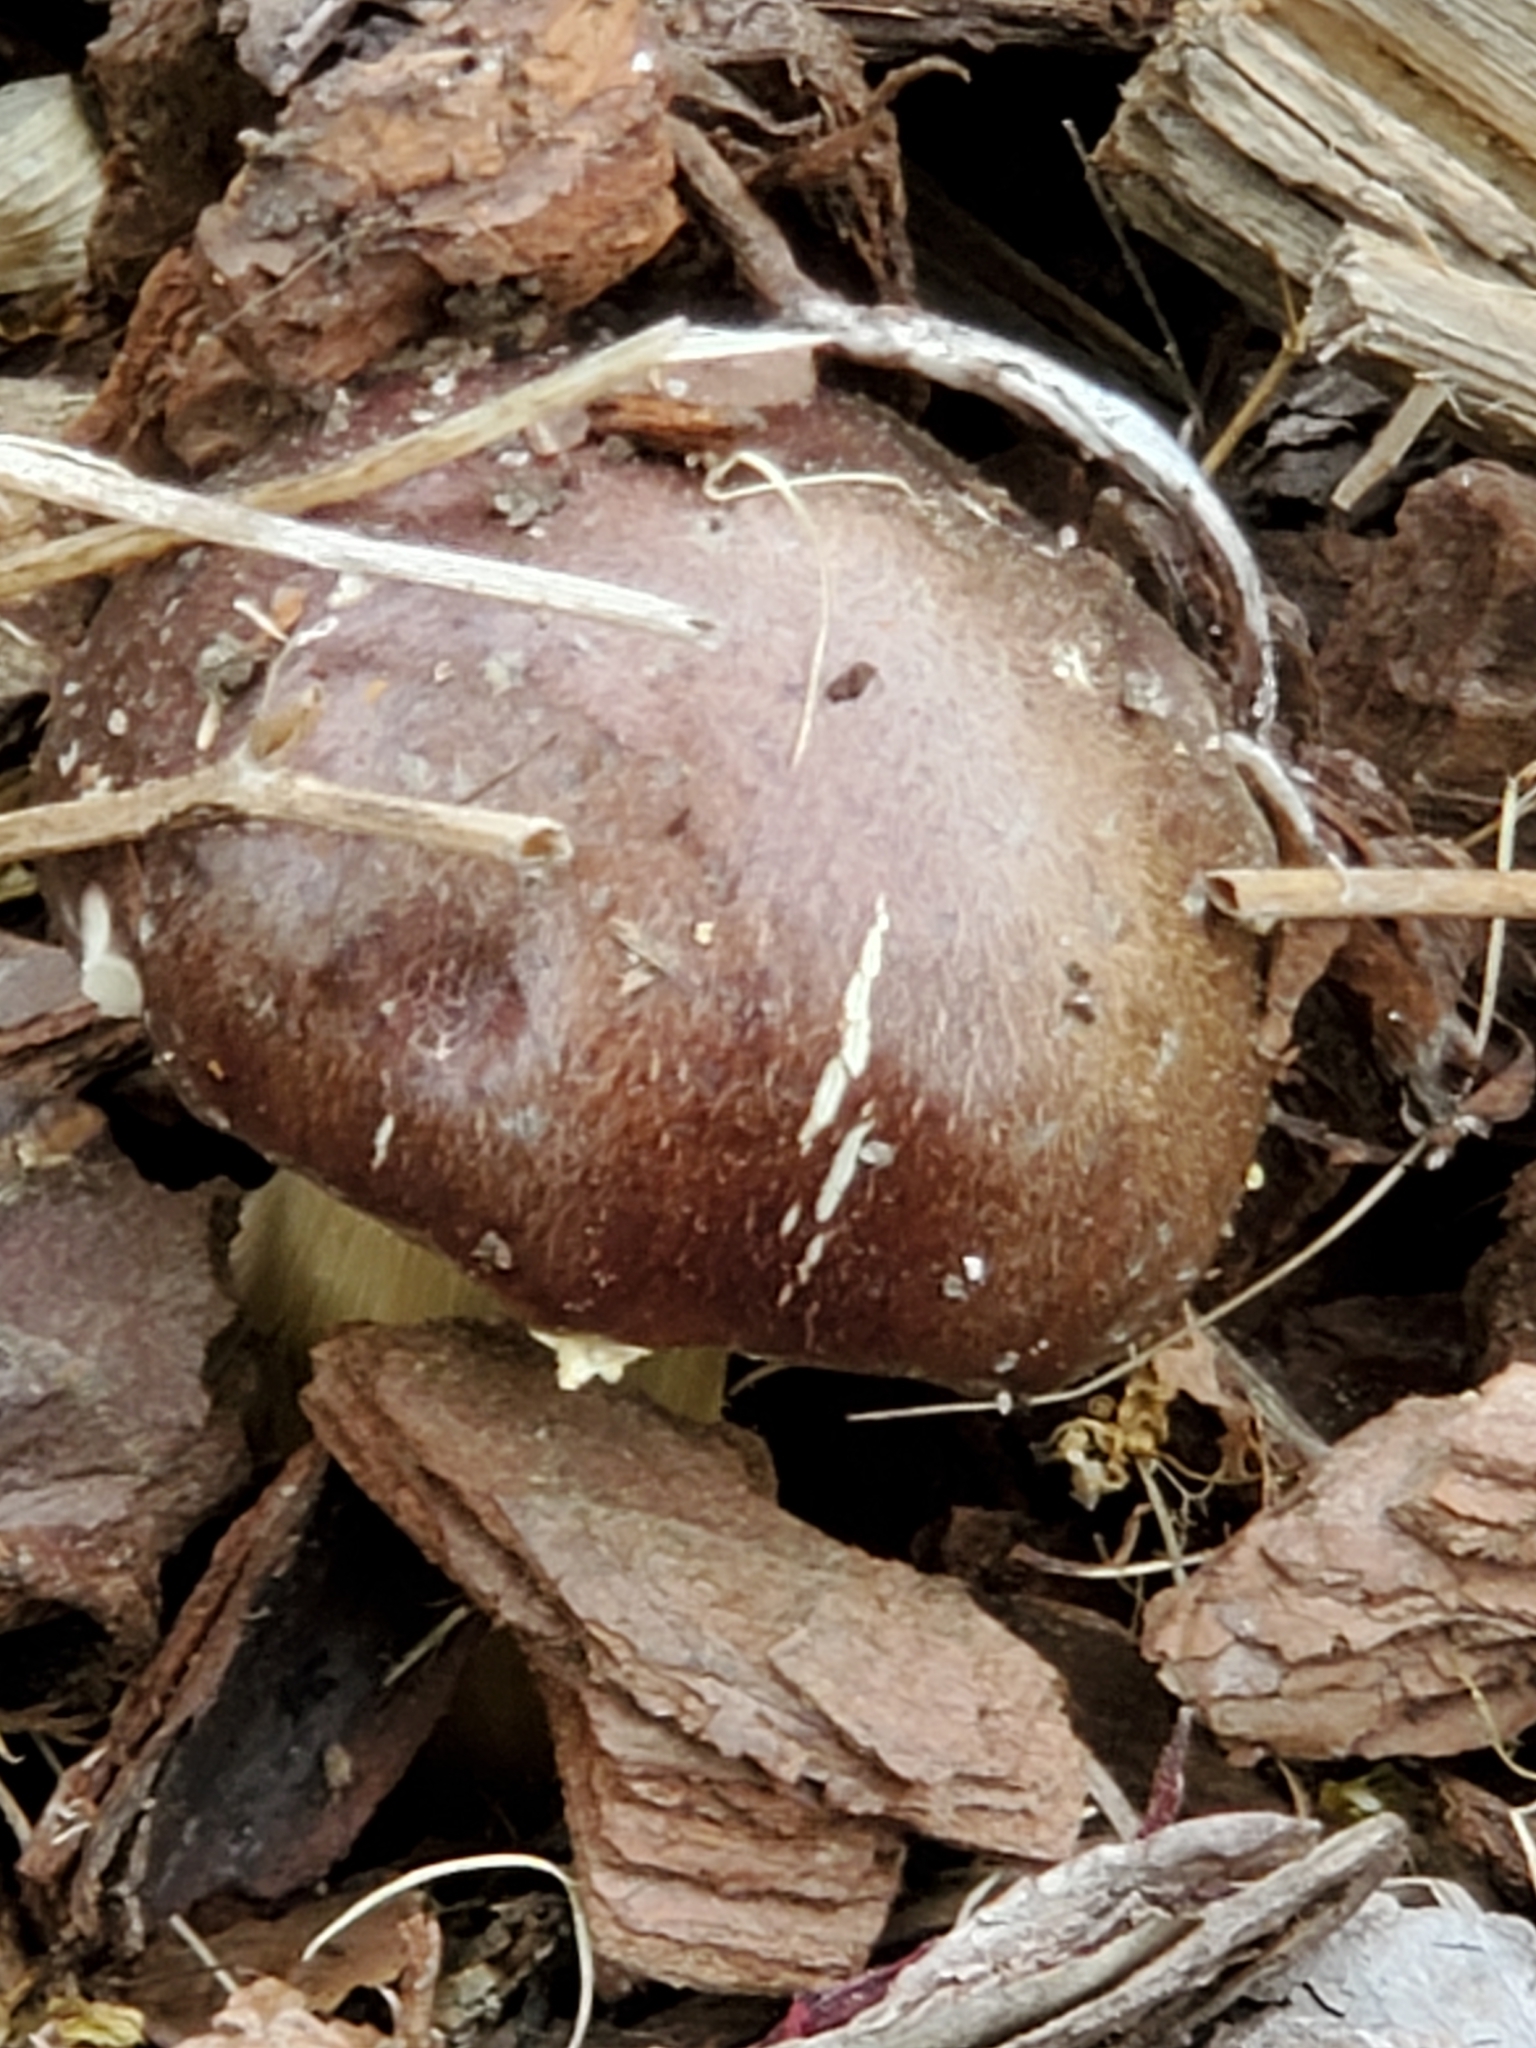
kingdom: Fungi
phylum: Basidiomycota
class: Agaricomycetes
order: Agaricales
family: Strophariaceae
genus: Stropharia
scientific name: Stropharia rugosoannulata
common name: Wine roundhead
